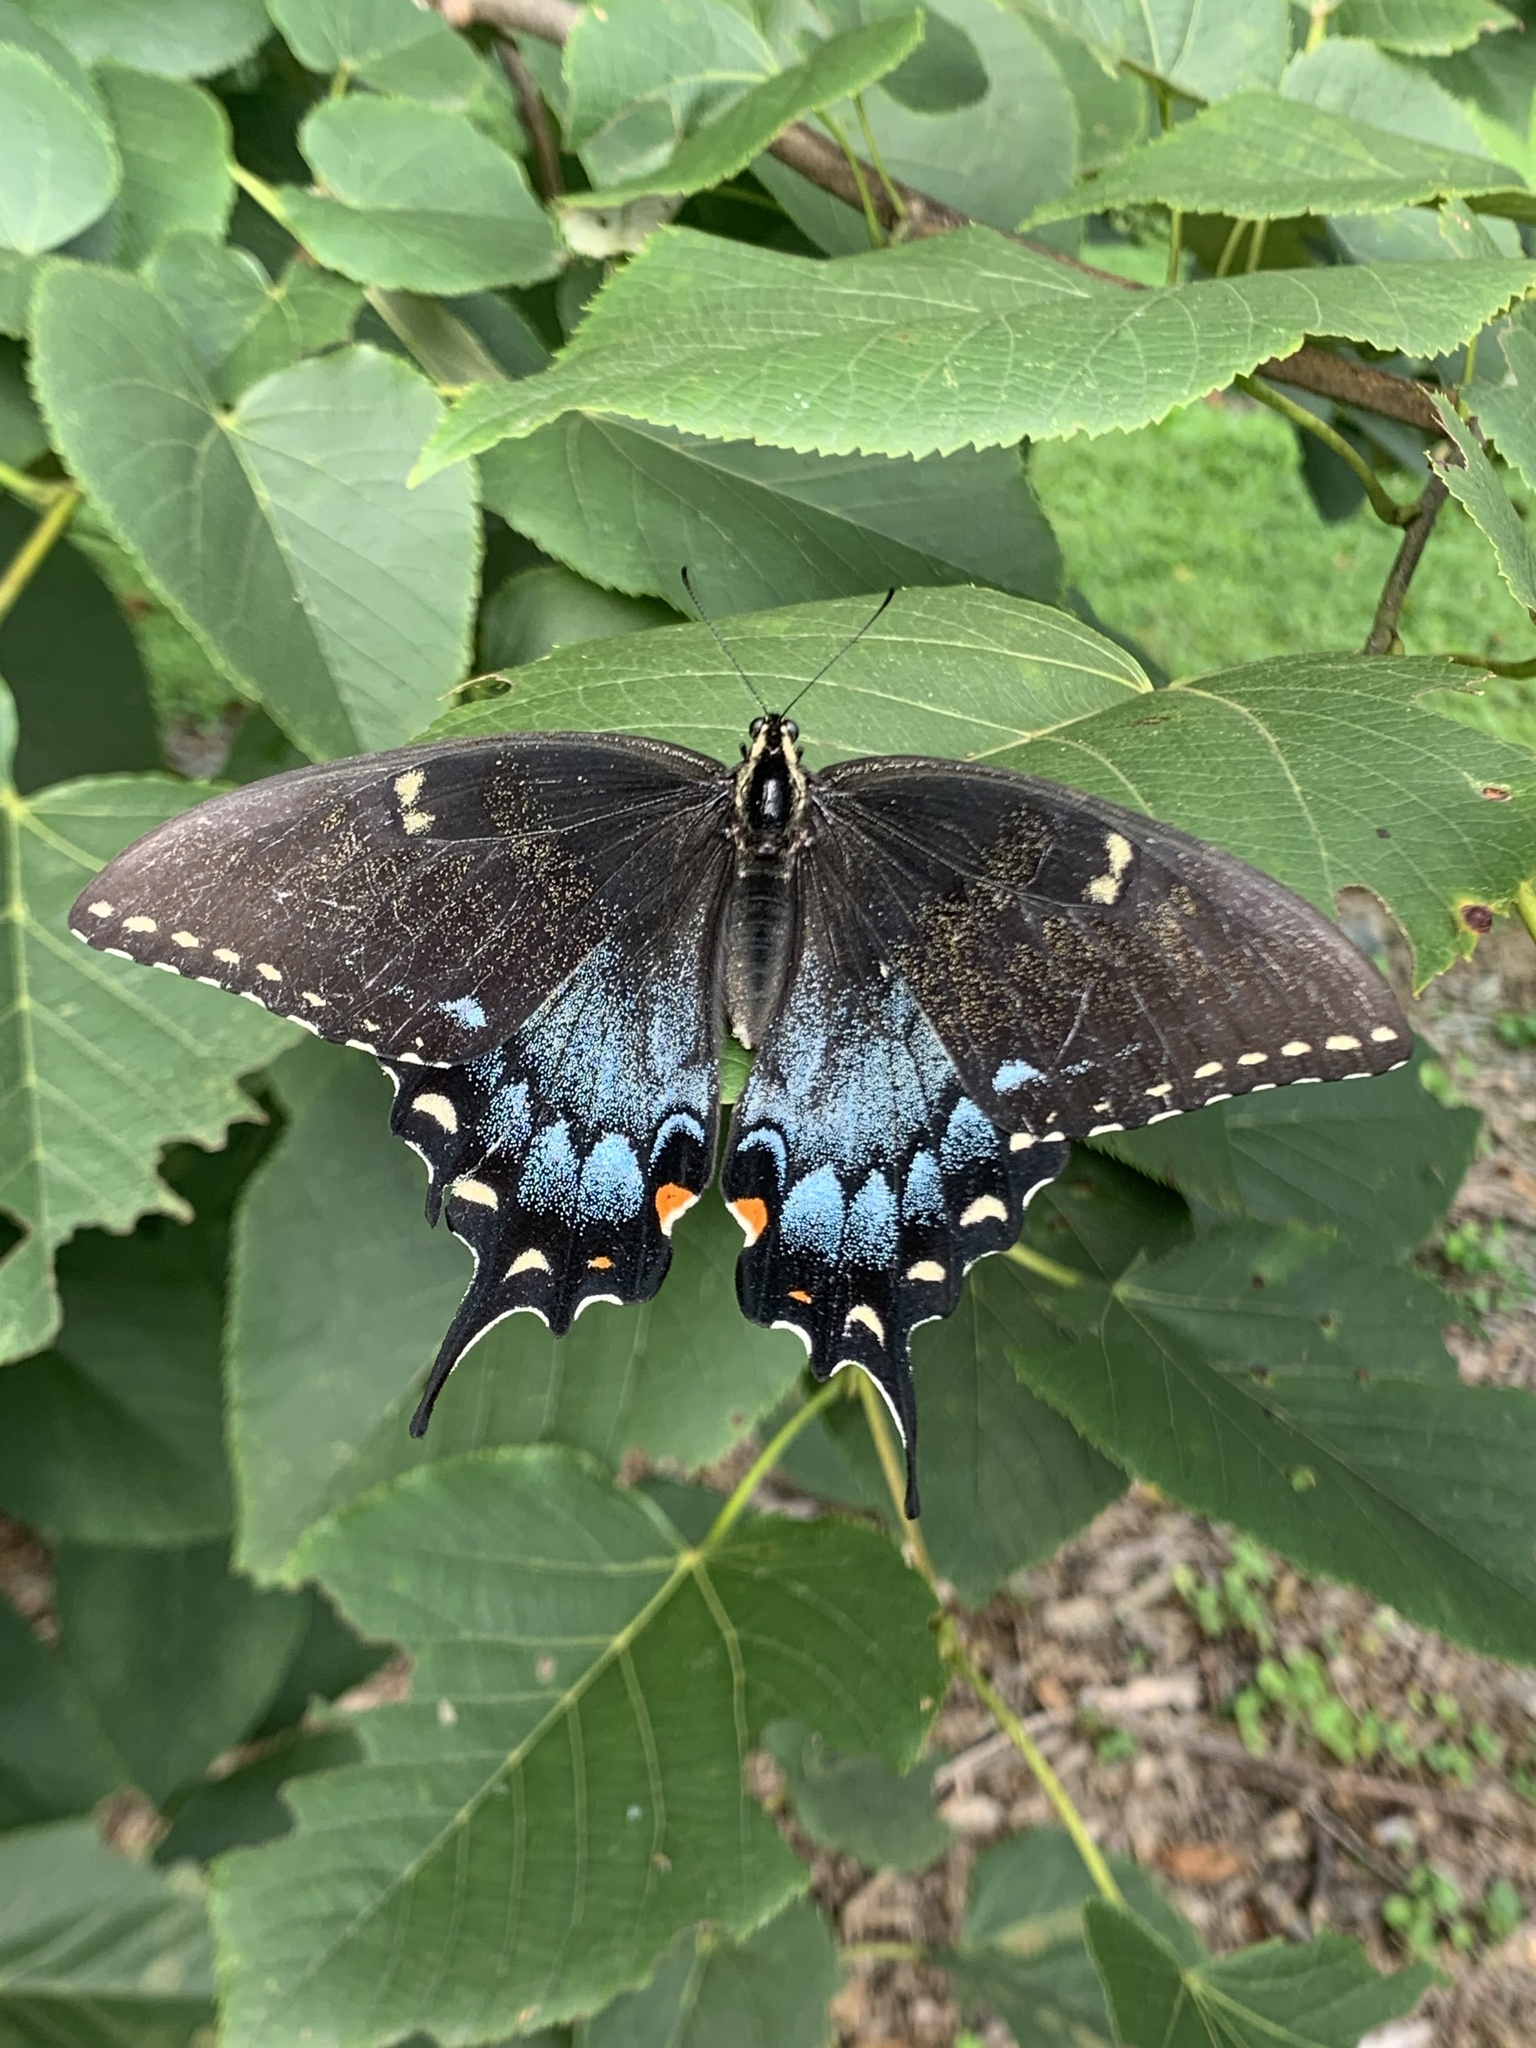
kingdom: Animalia
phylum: Arthropoda
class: Insecta
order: Lepidoptera
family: Papilionidae
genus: Papilio
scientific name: Papilio glaucus
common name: Tiger swallowtail
